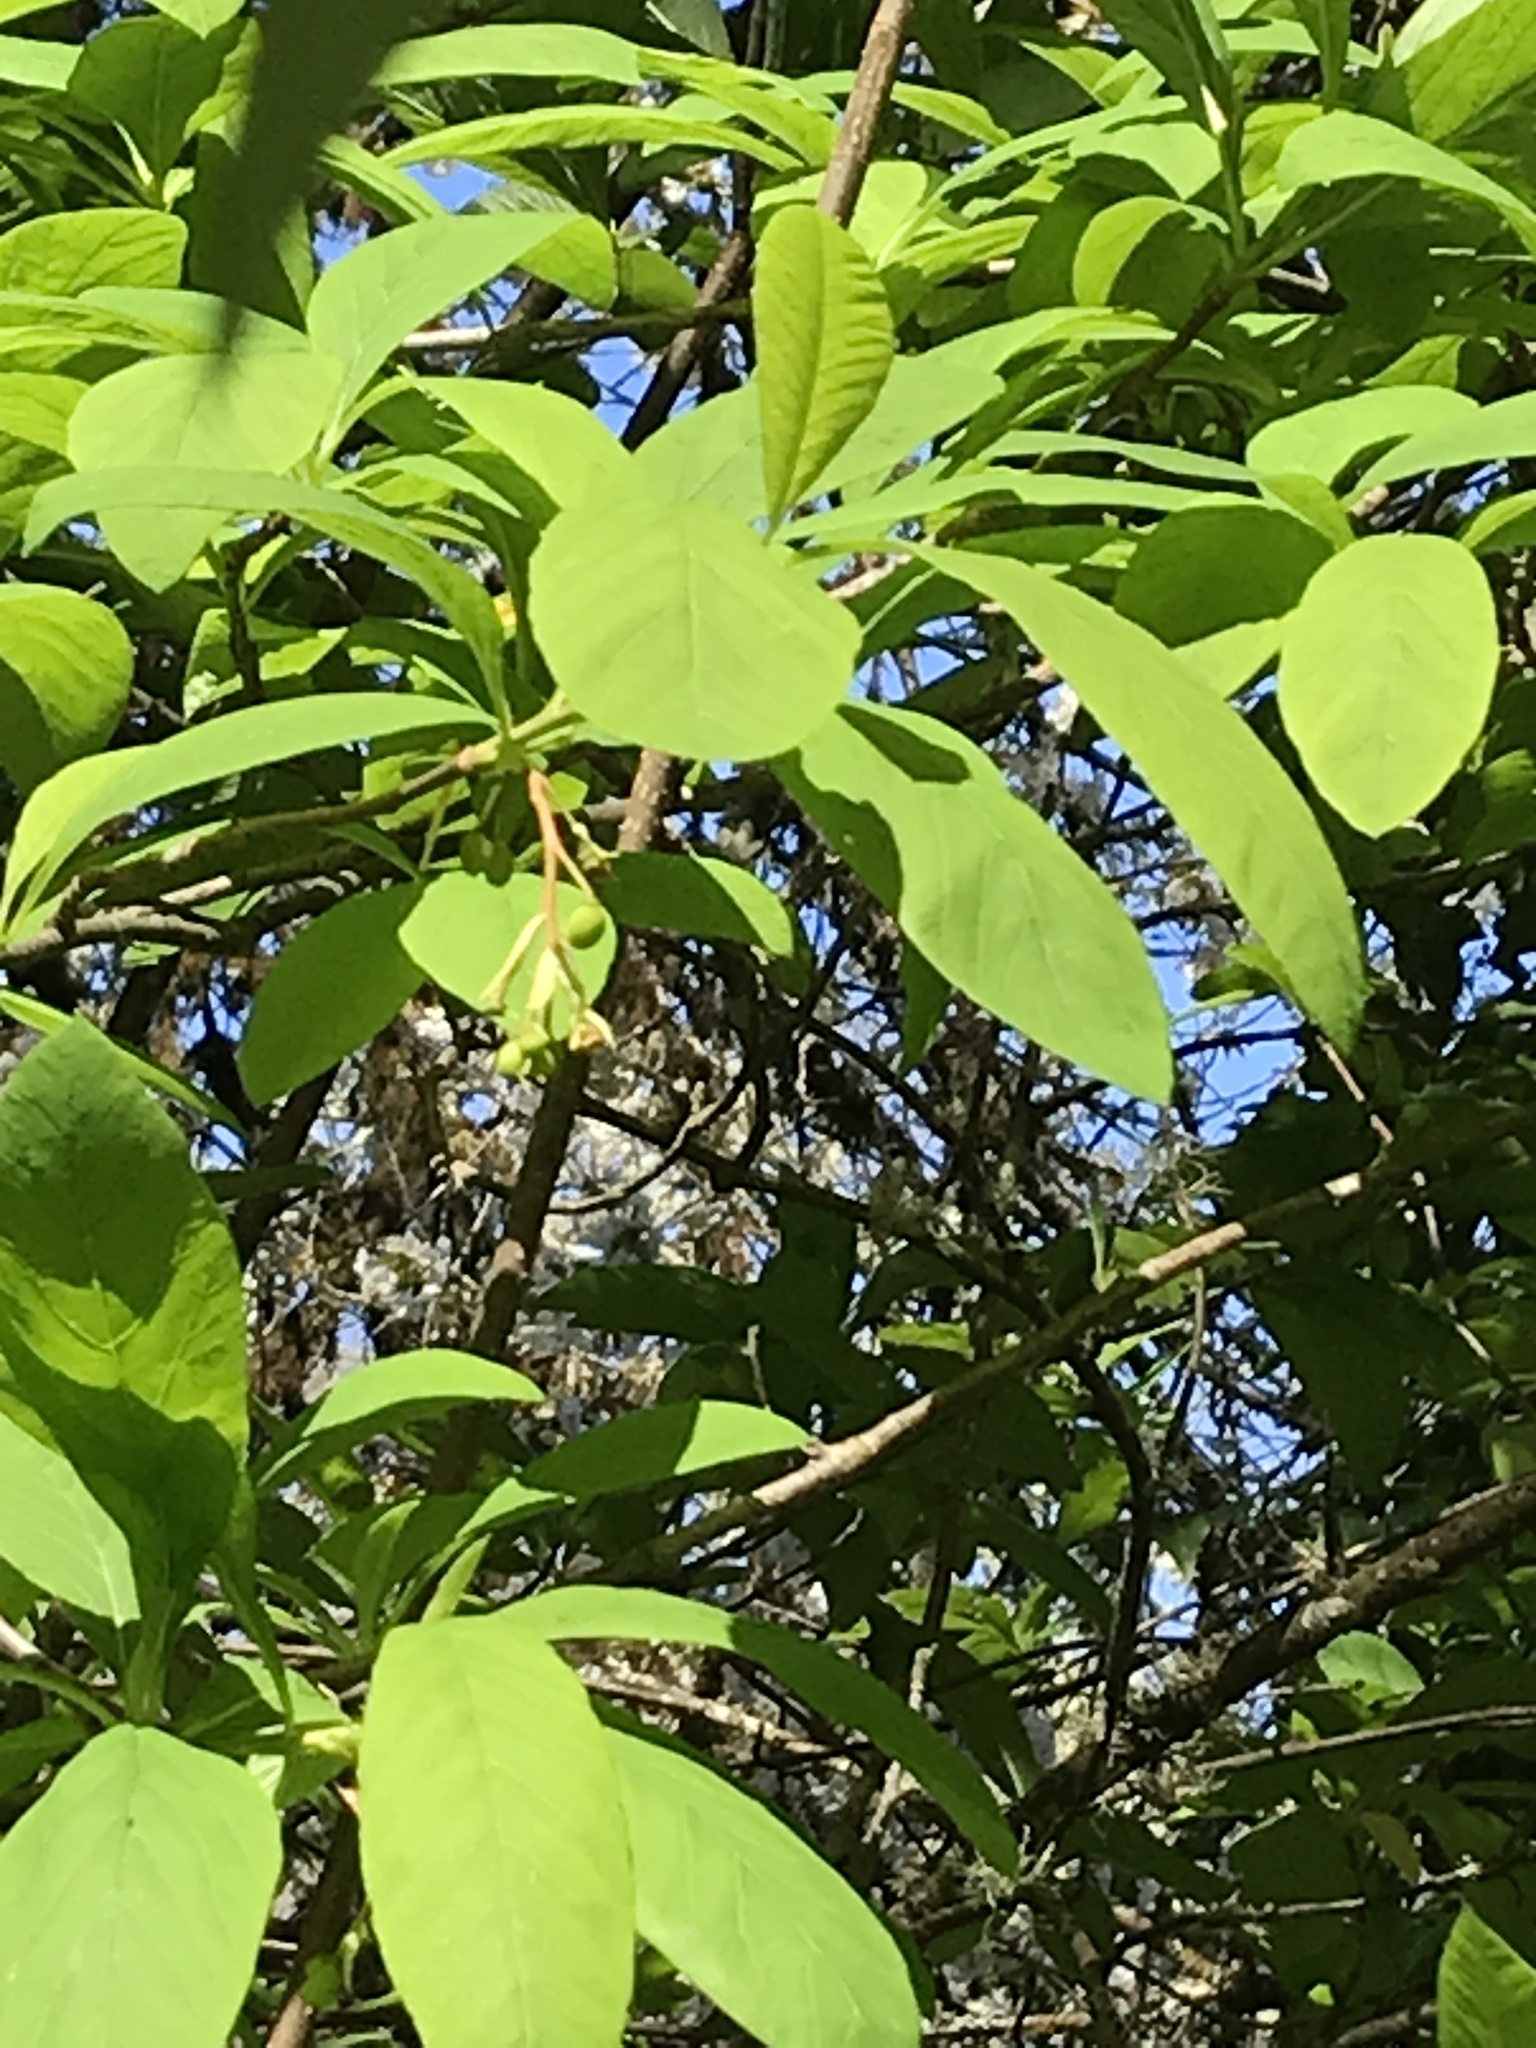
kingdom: Plantae
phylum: Tracheophyta
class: Magnoliopsida
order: Rosales
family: Rosaceae
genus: Oemleria
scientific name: Oemleria cerasiformis
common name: Osoberry
